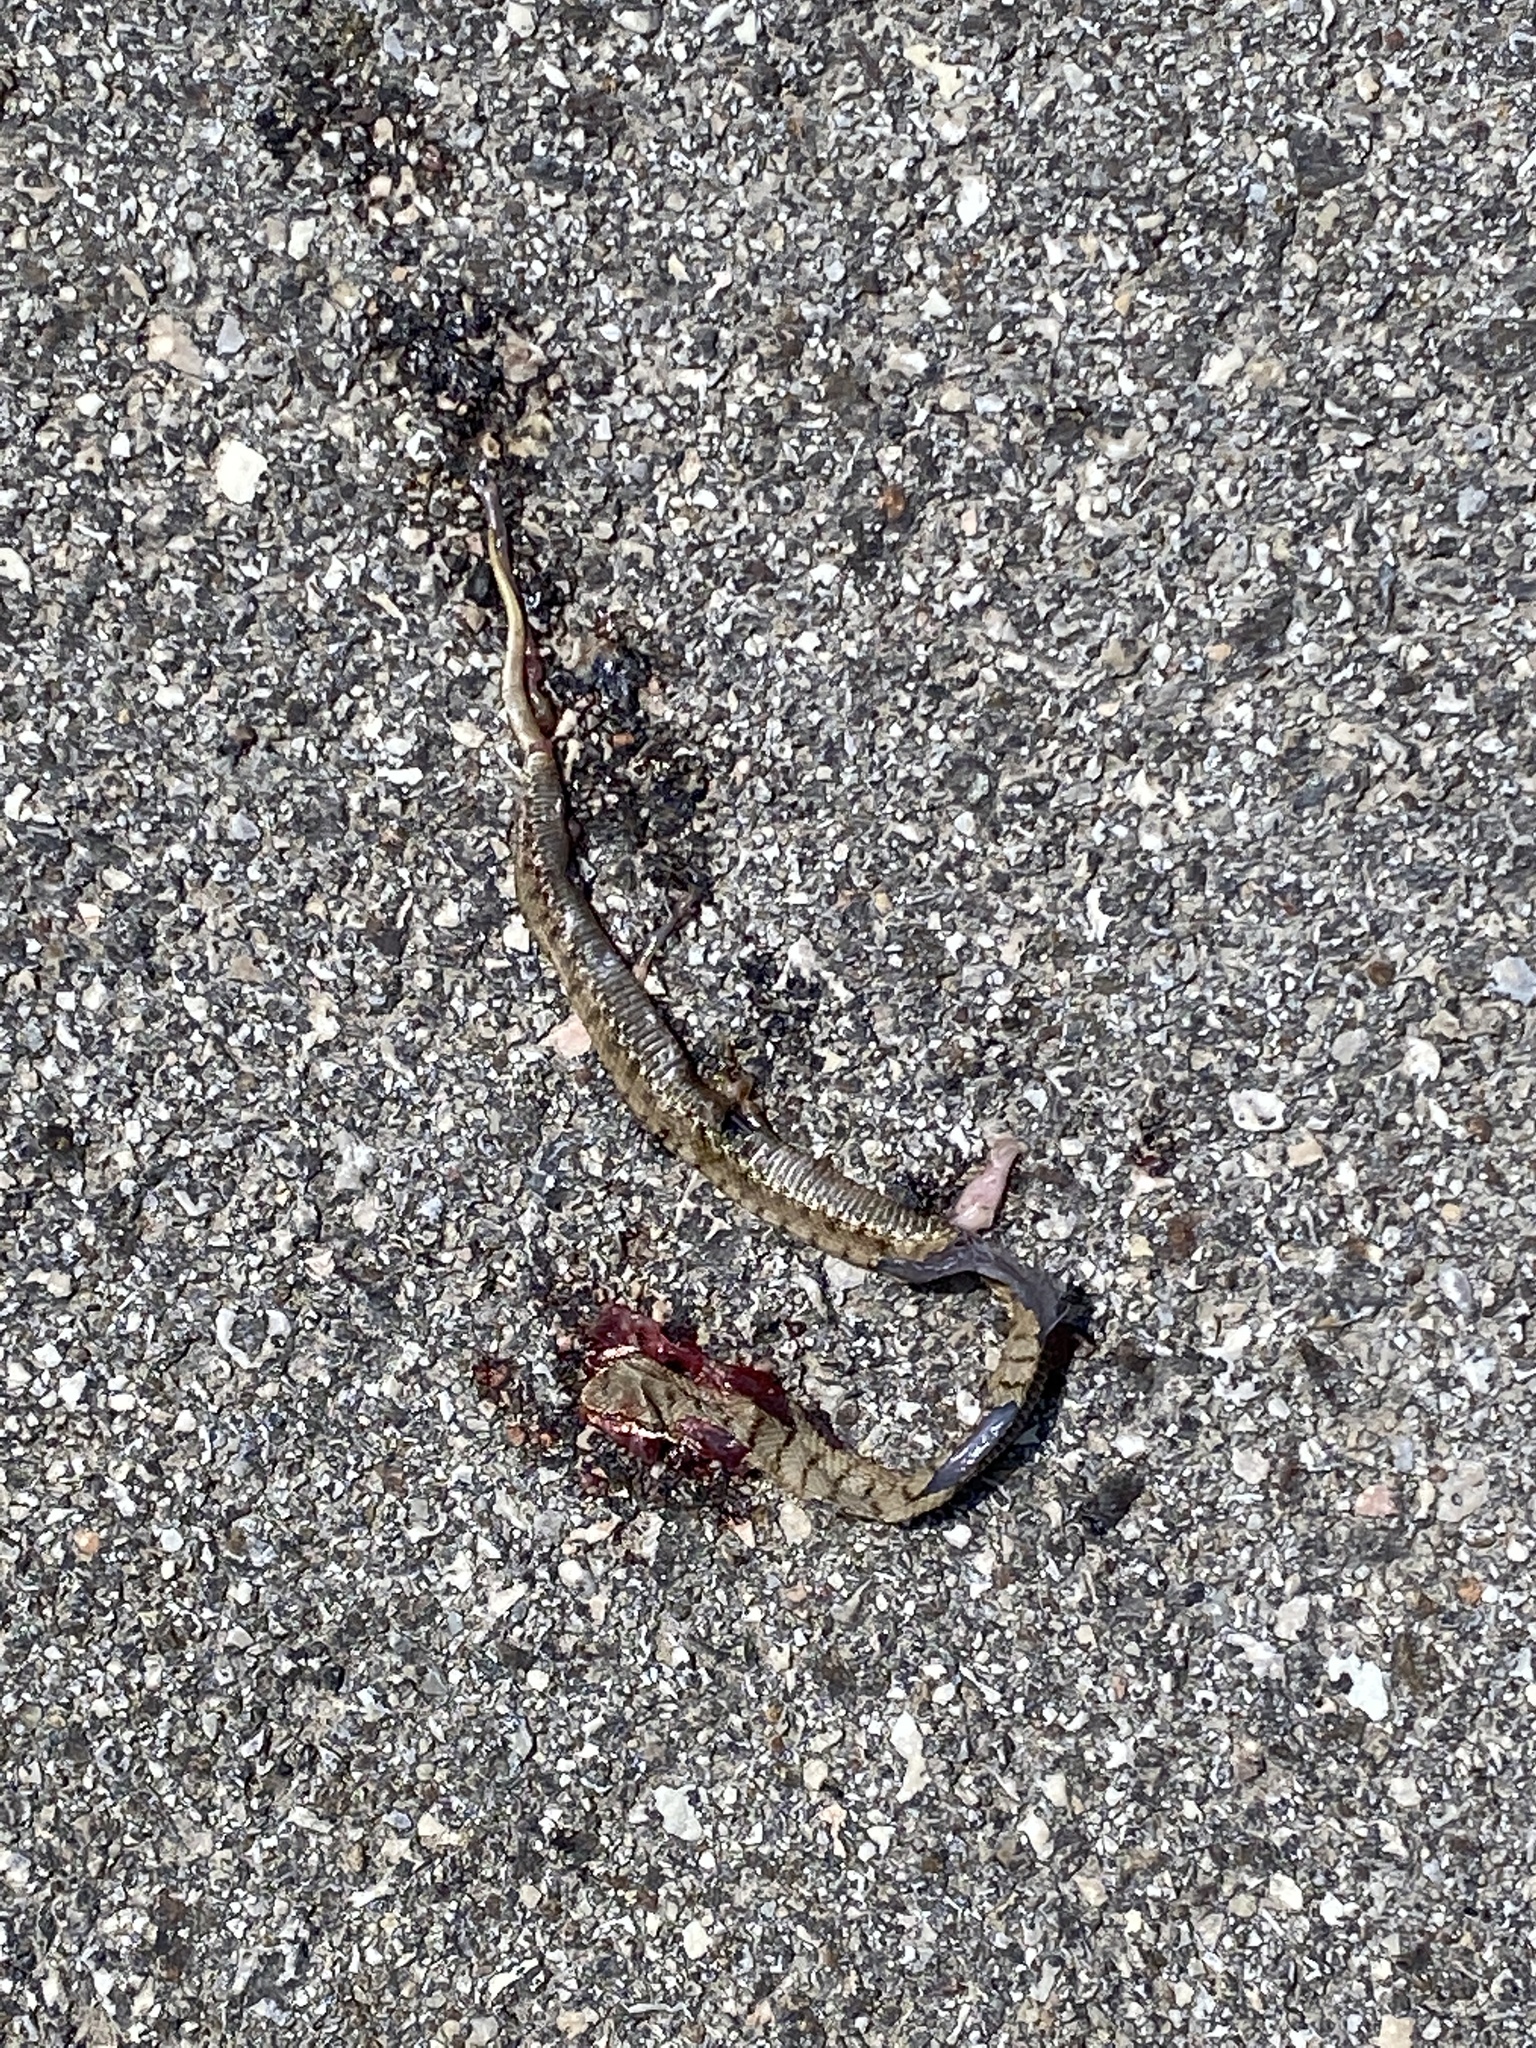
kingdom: Animalia
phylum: Chordata
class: Squamata
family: Viperidae
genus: Vipera
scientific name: Vipera aspis
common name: Asp viper
